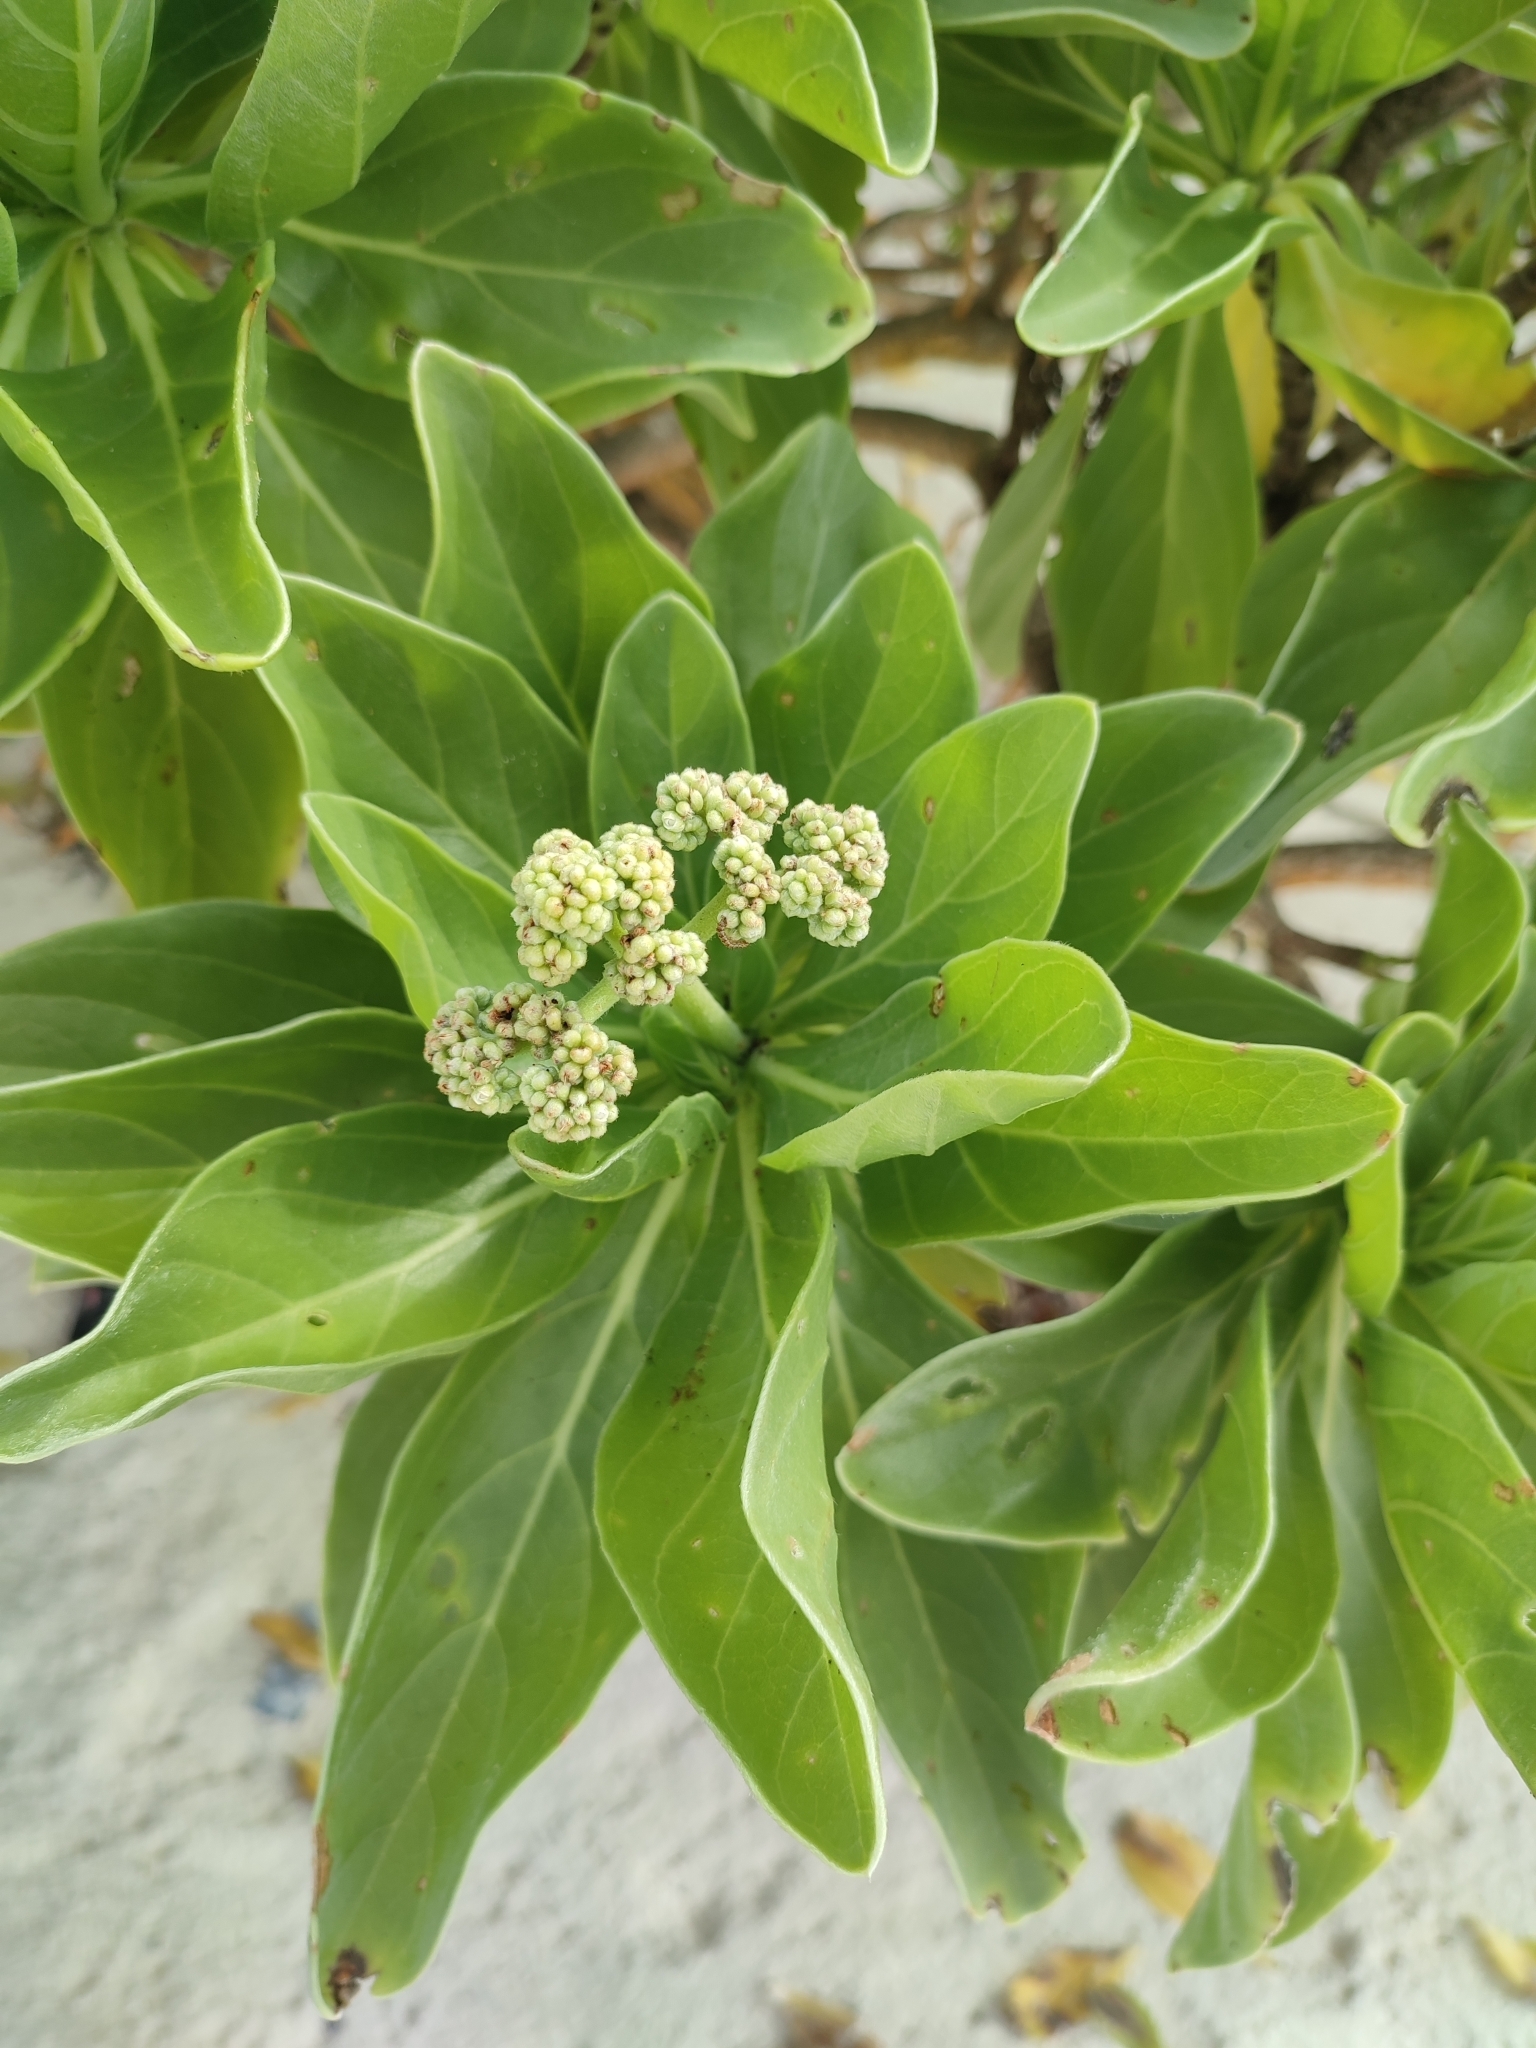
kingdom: Plantae
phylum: Tracheophyta
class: Magnoliopsida
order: Boraginales
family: Heliotropiaceae
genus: Heliotropium
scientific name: Heliotropium velutinum
